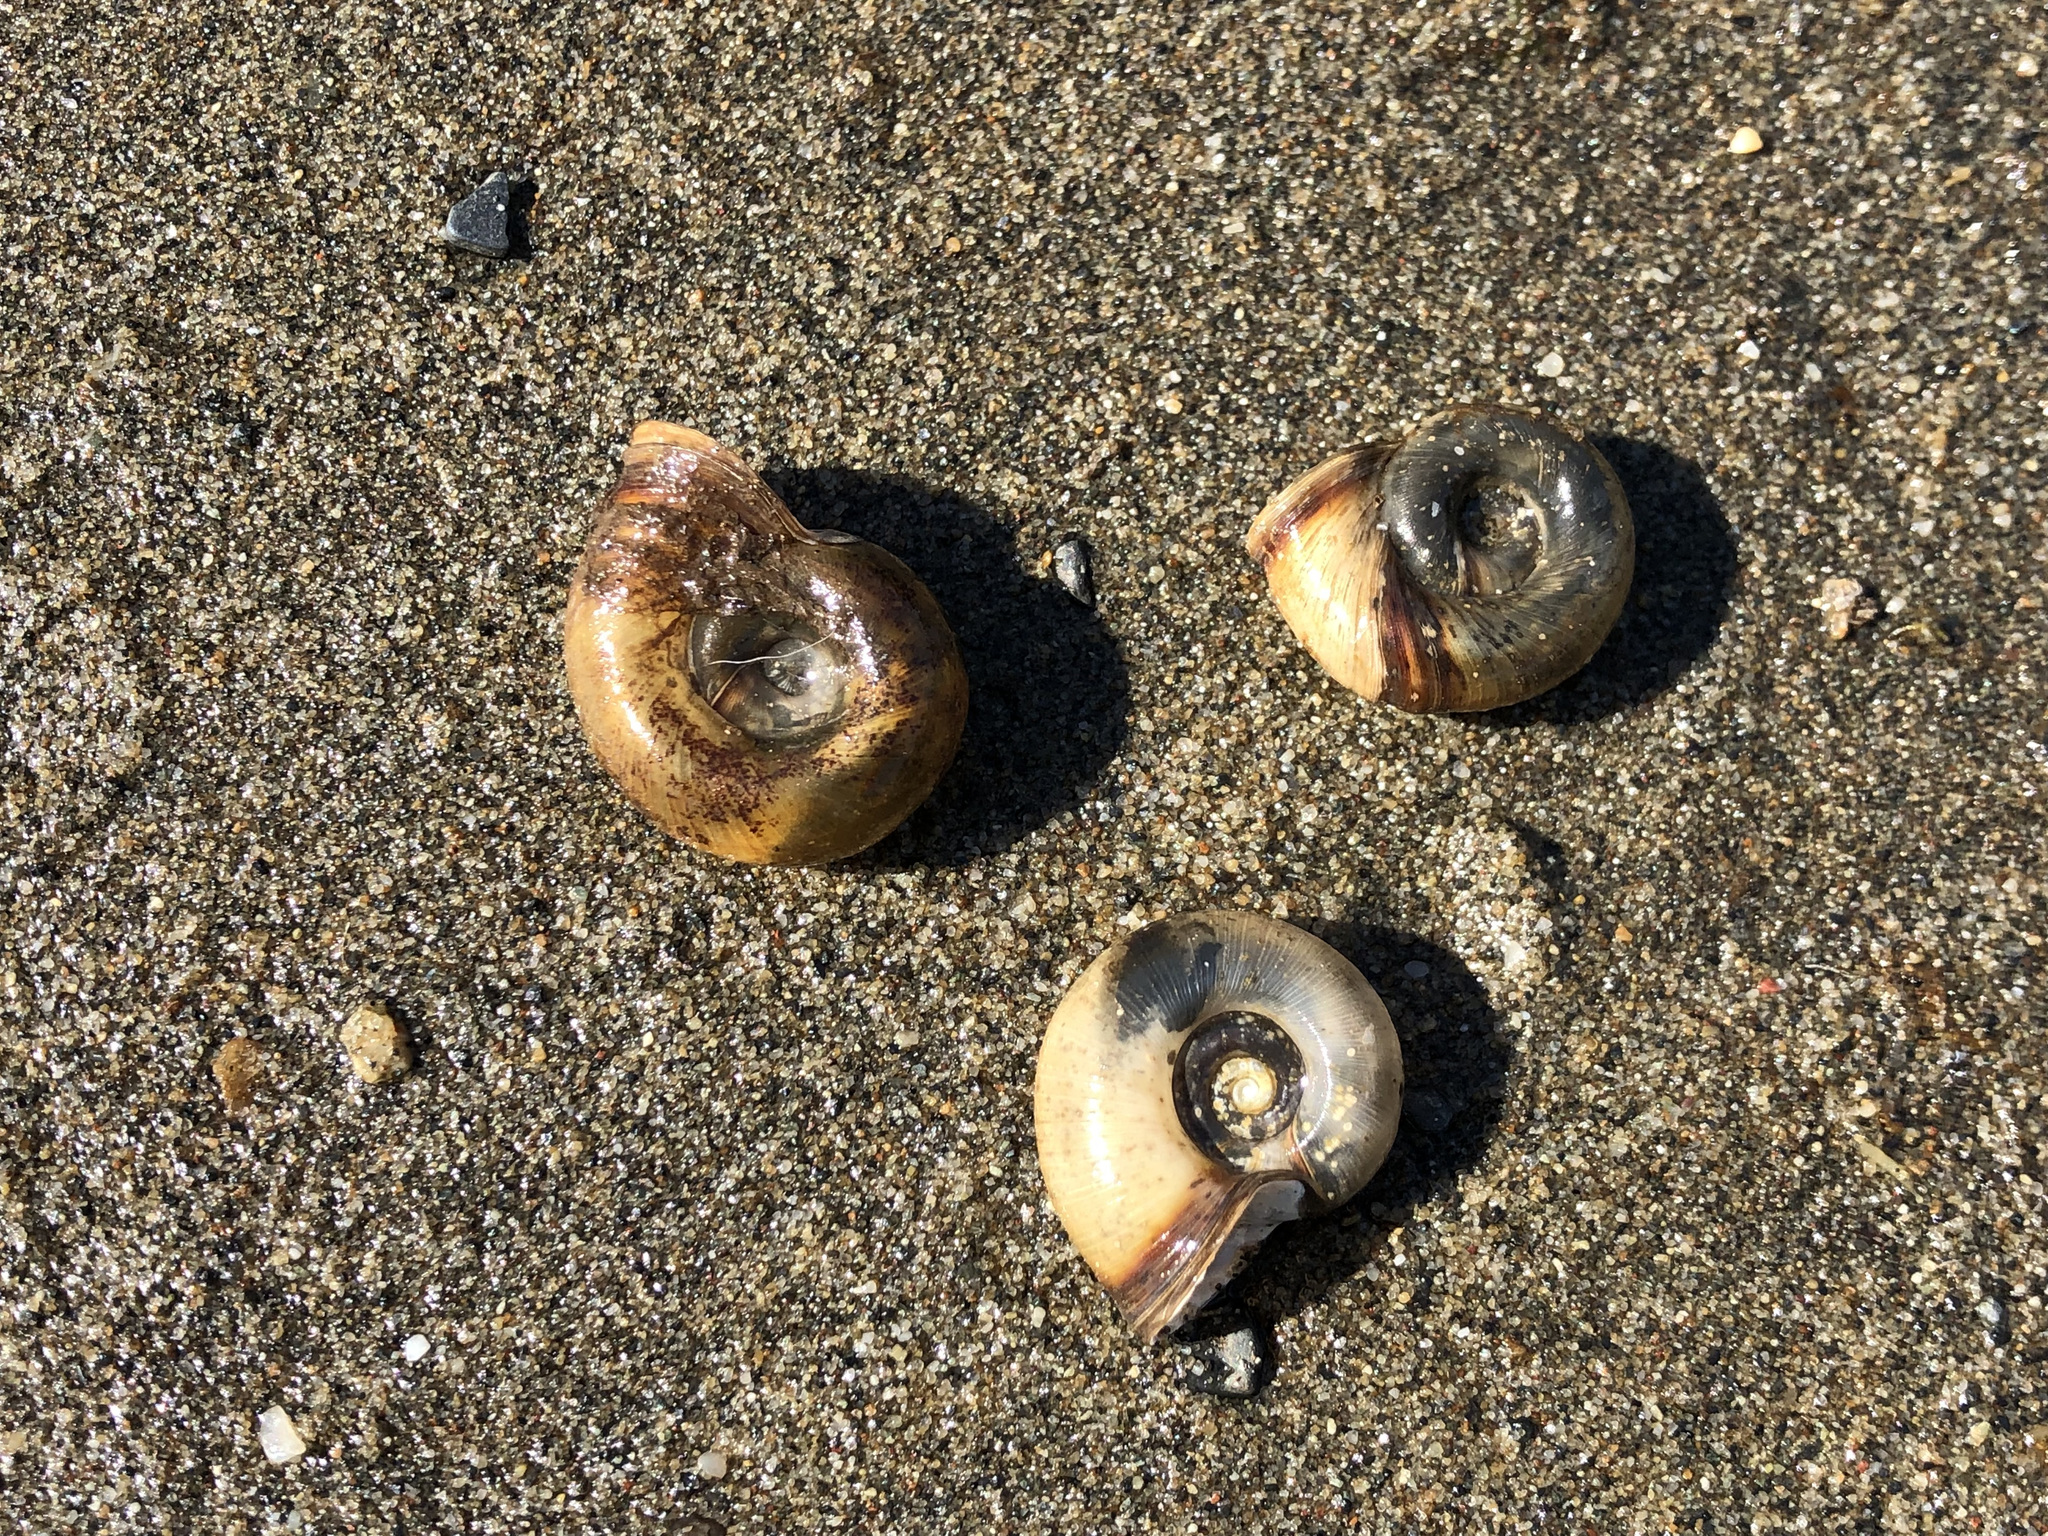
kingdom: Animalia
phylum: Mollusca
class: Gastropoda
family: Planorbidae
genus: Planorbella
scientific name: Planorbella trivolvis
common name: Marsh rams-horn
